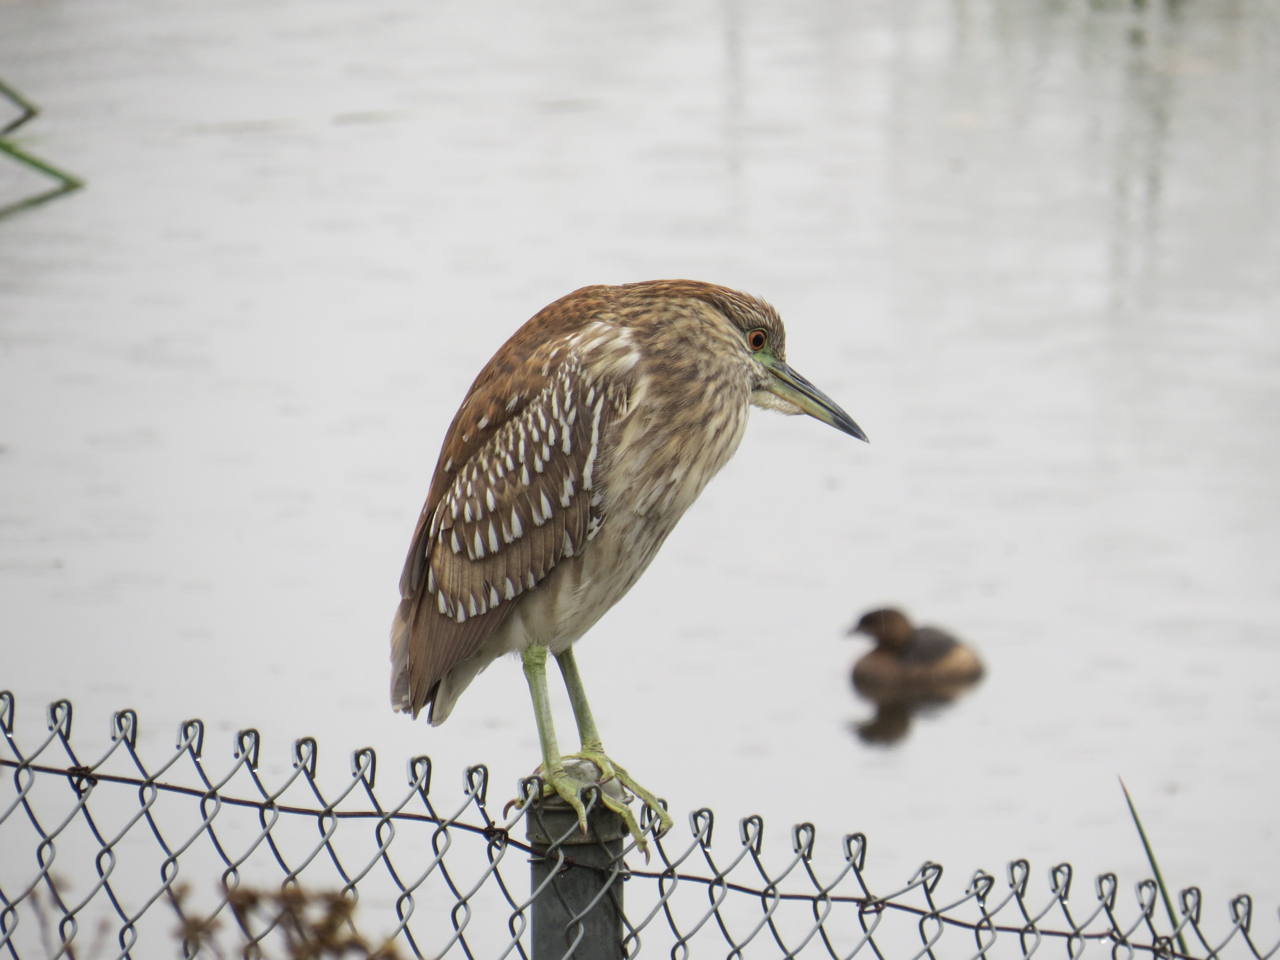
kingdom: Animalia
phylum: Chordata
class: Aves
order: Pelecaniformes
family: Ardeidae
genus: Nycticorax
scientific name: Nycticorax nycticorax
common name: Black-crowned night heron
